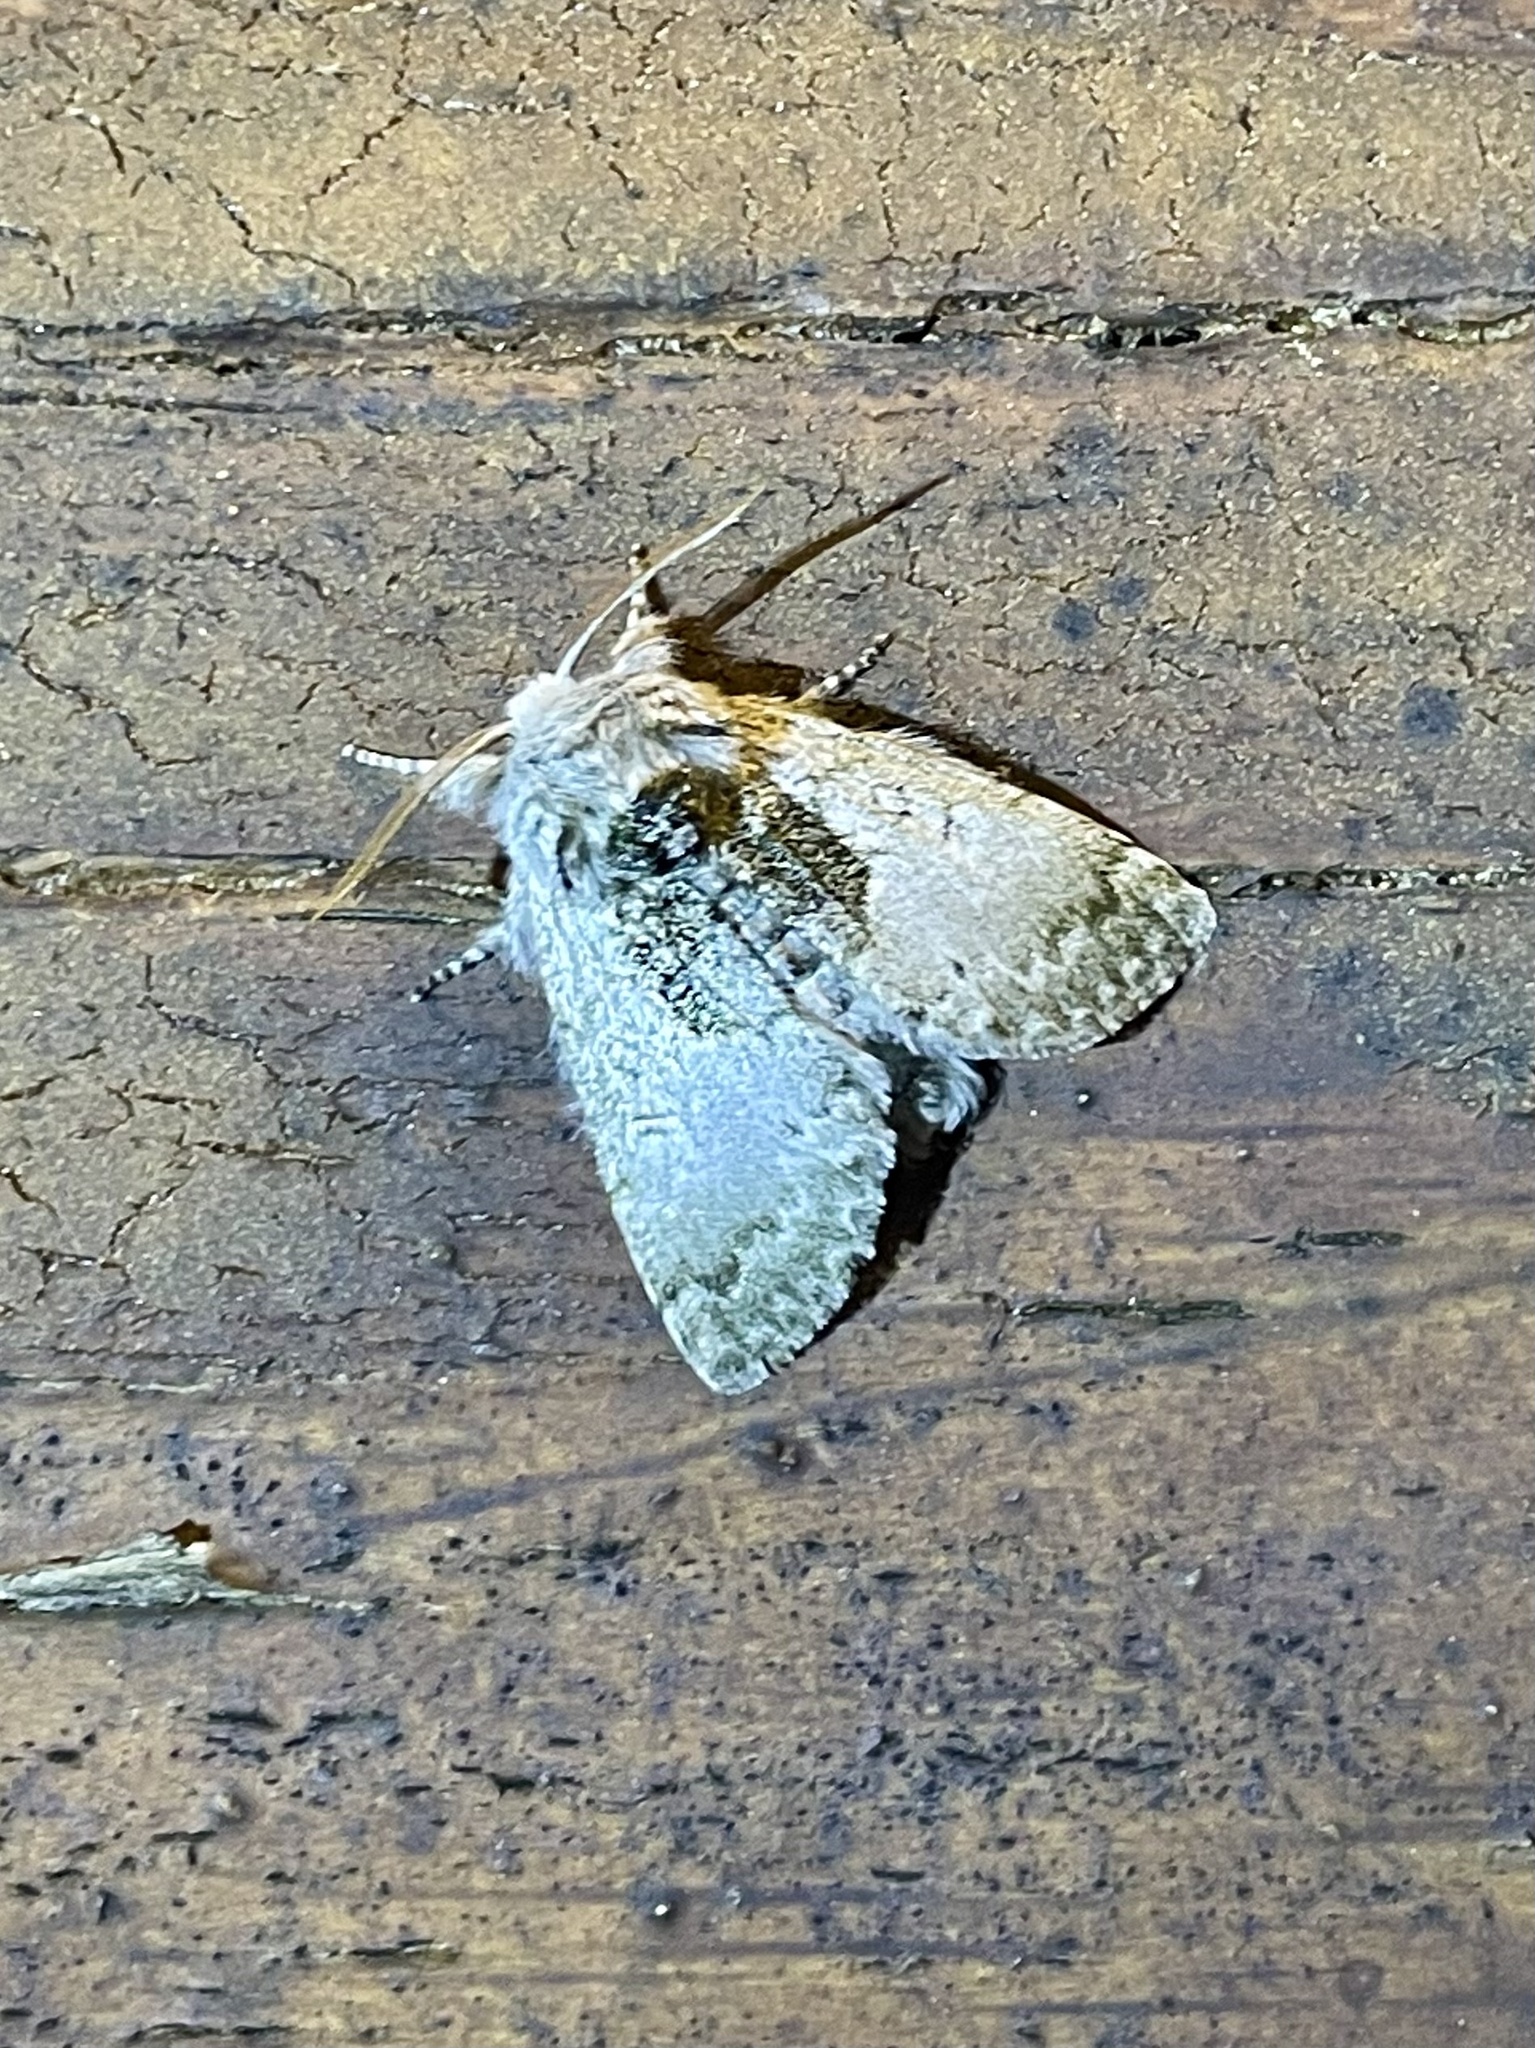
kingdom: Animalia
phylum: Arthropoda
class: Insecta
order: Lepidoptera
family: Noctuidae
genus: Colocasia
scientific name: Colocasia flavicornis
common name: Saddled yellowhorn
